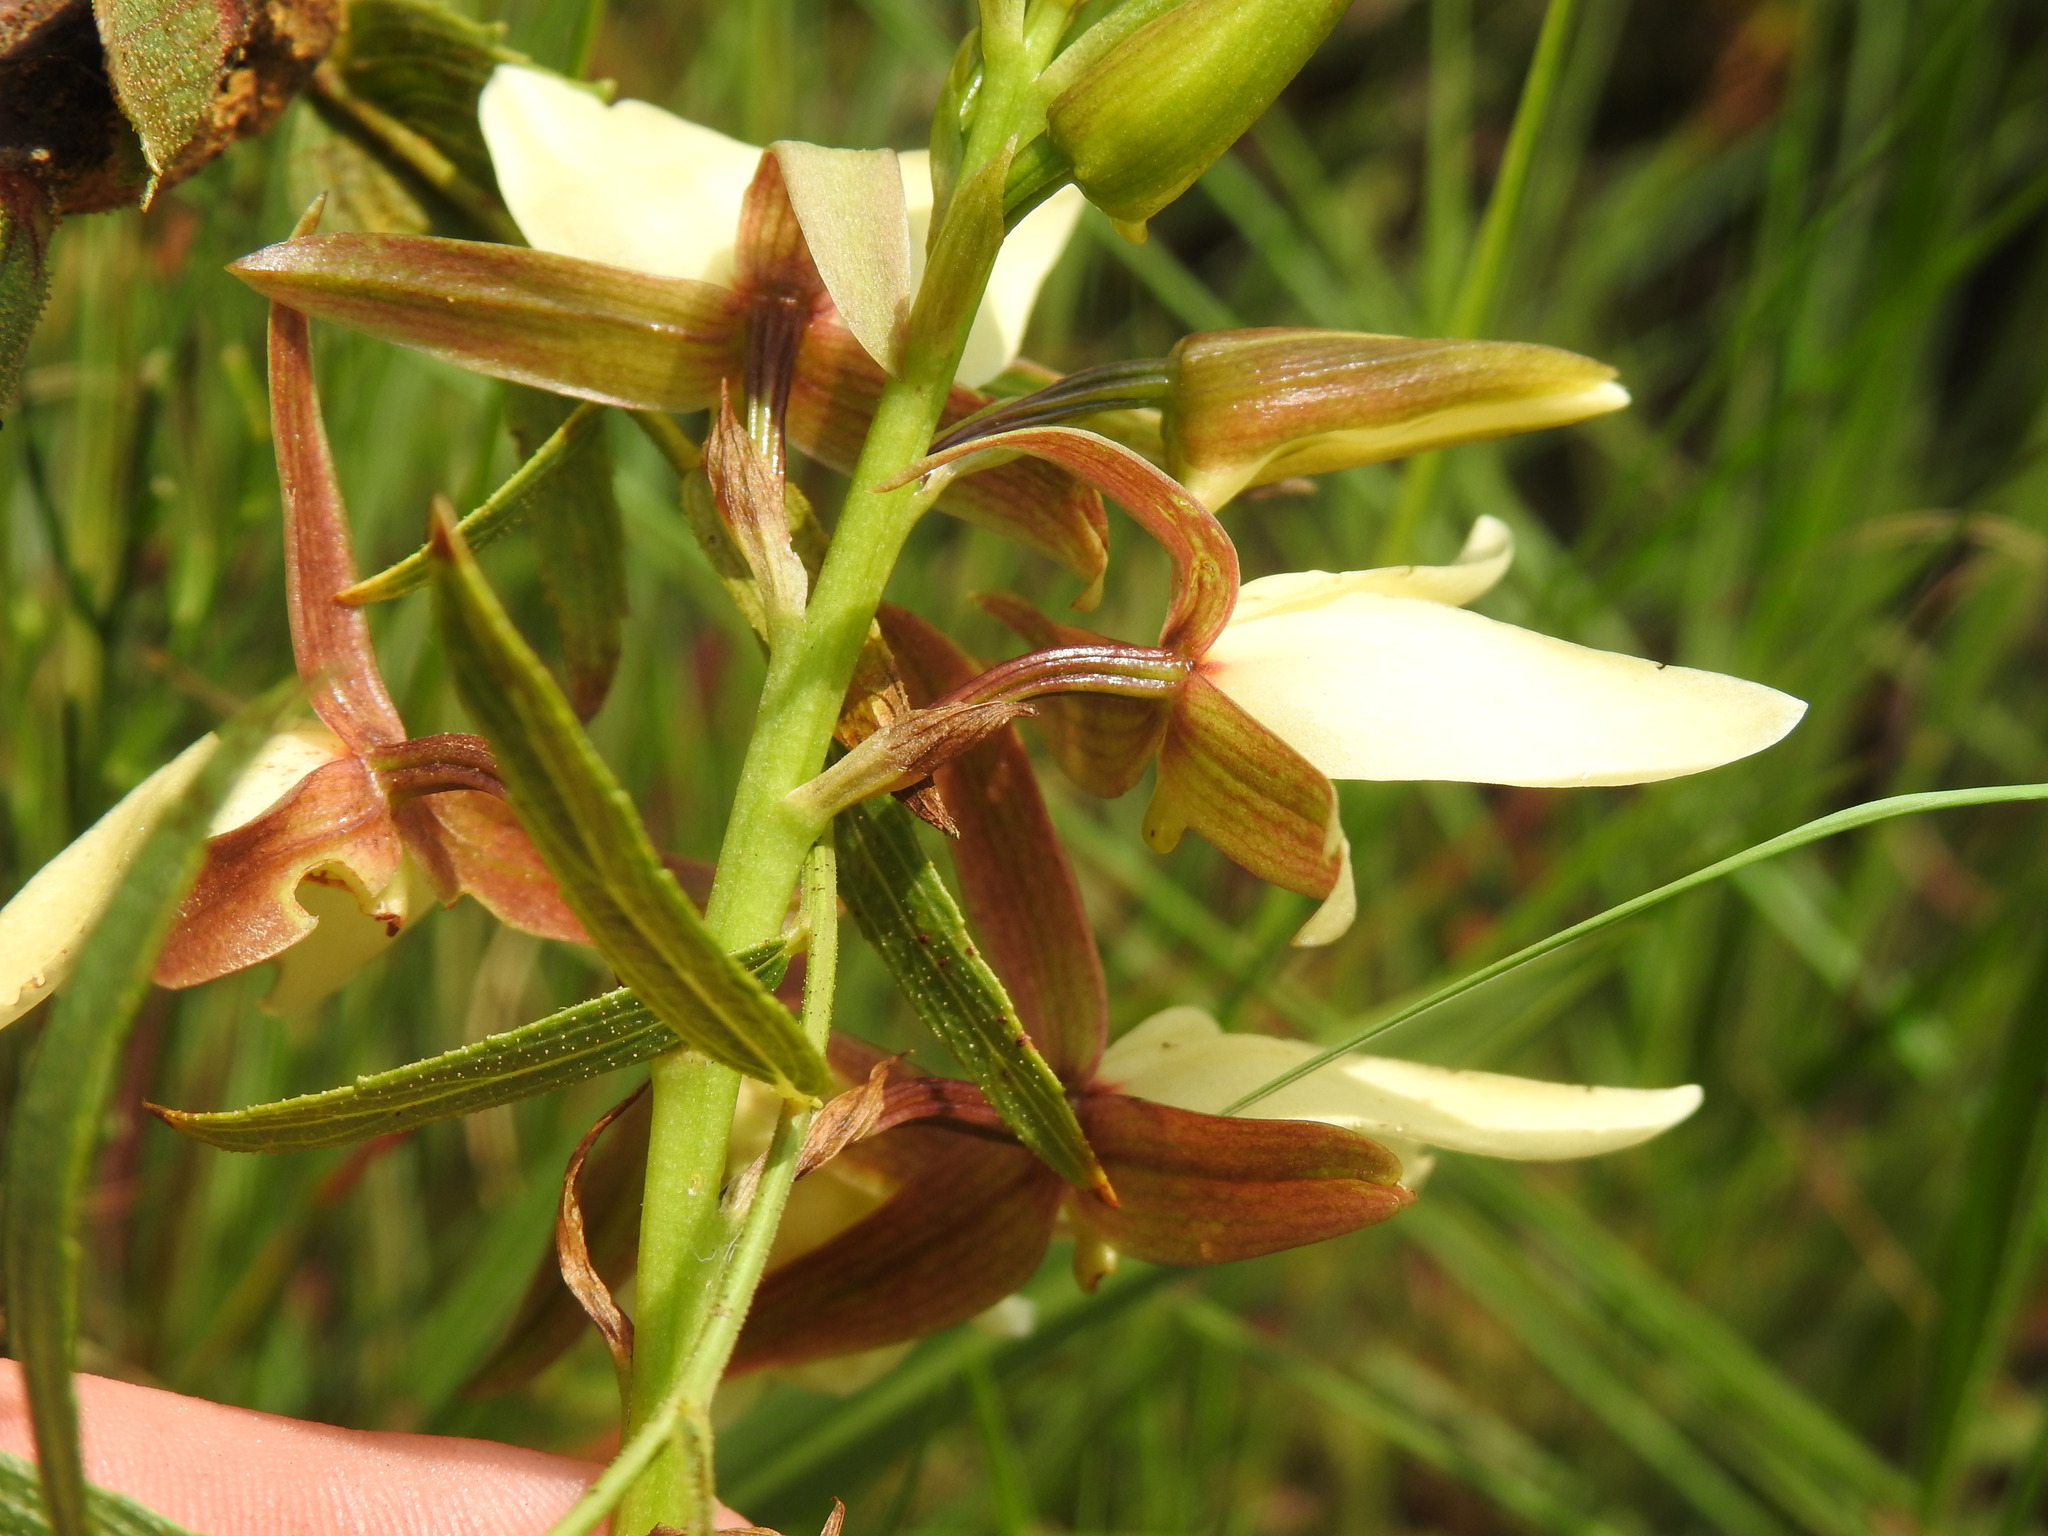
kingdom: Plantae
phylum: Tracheophyta
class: Liliopsida
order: Asparagales
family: Orchidaceae
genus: Eulophia
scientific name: Eulophia ovalis
